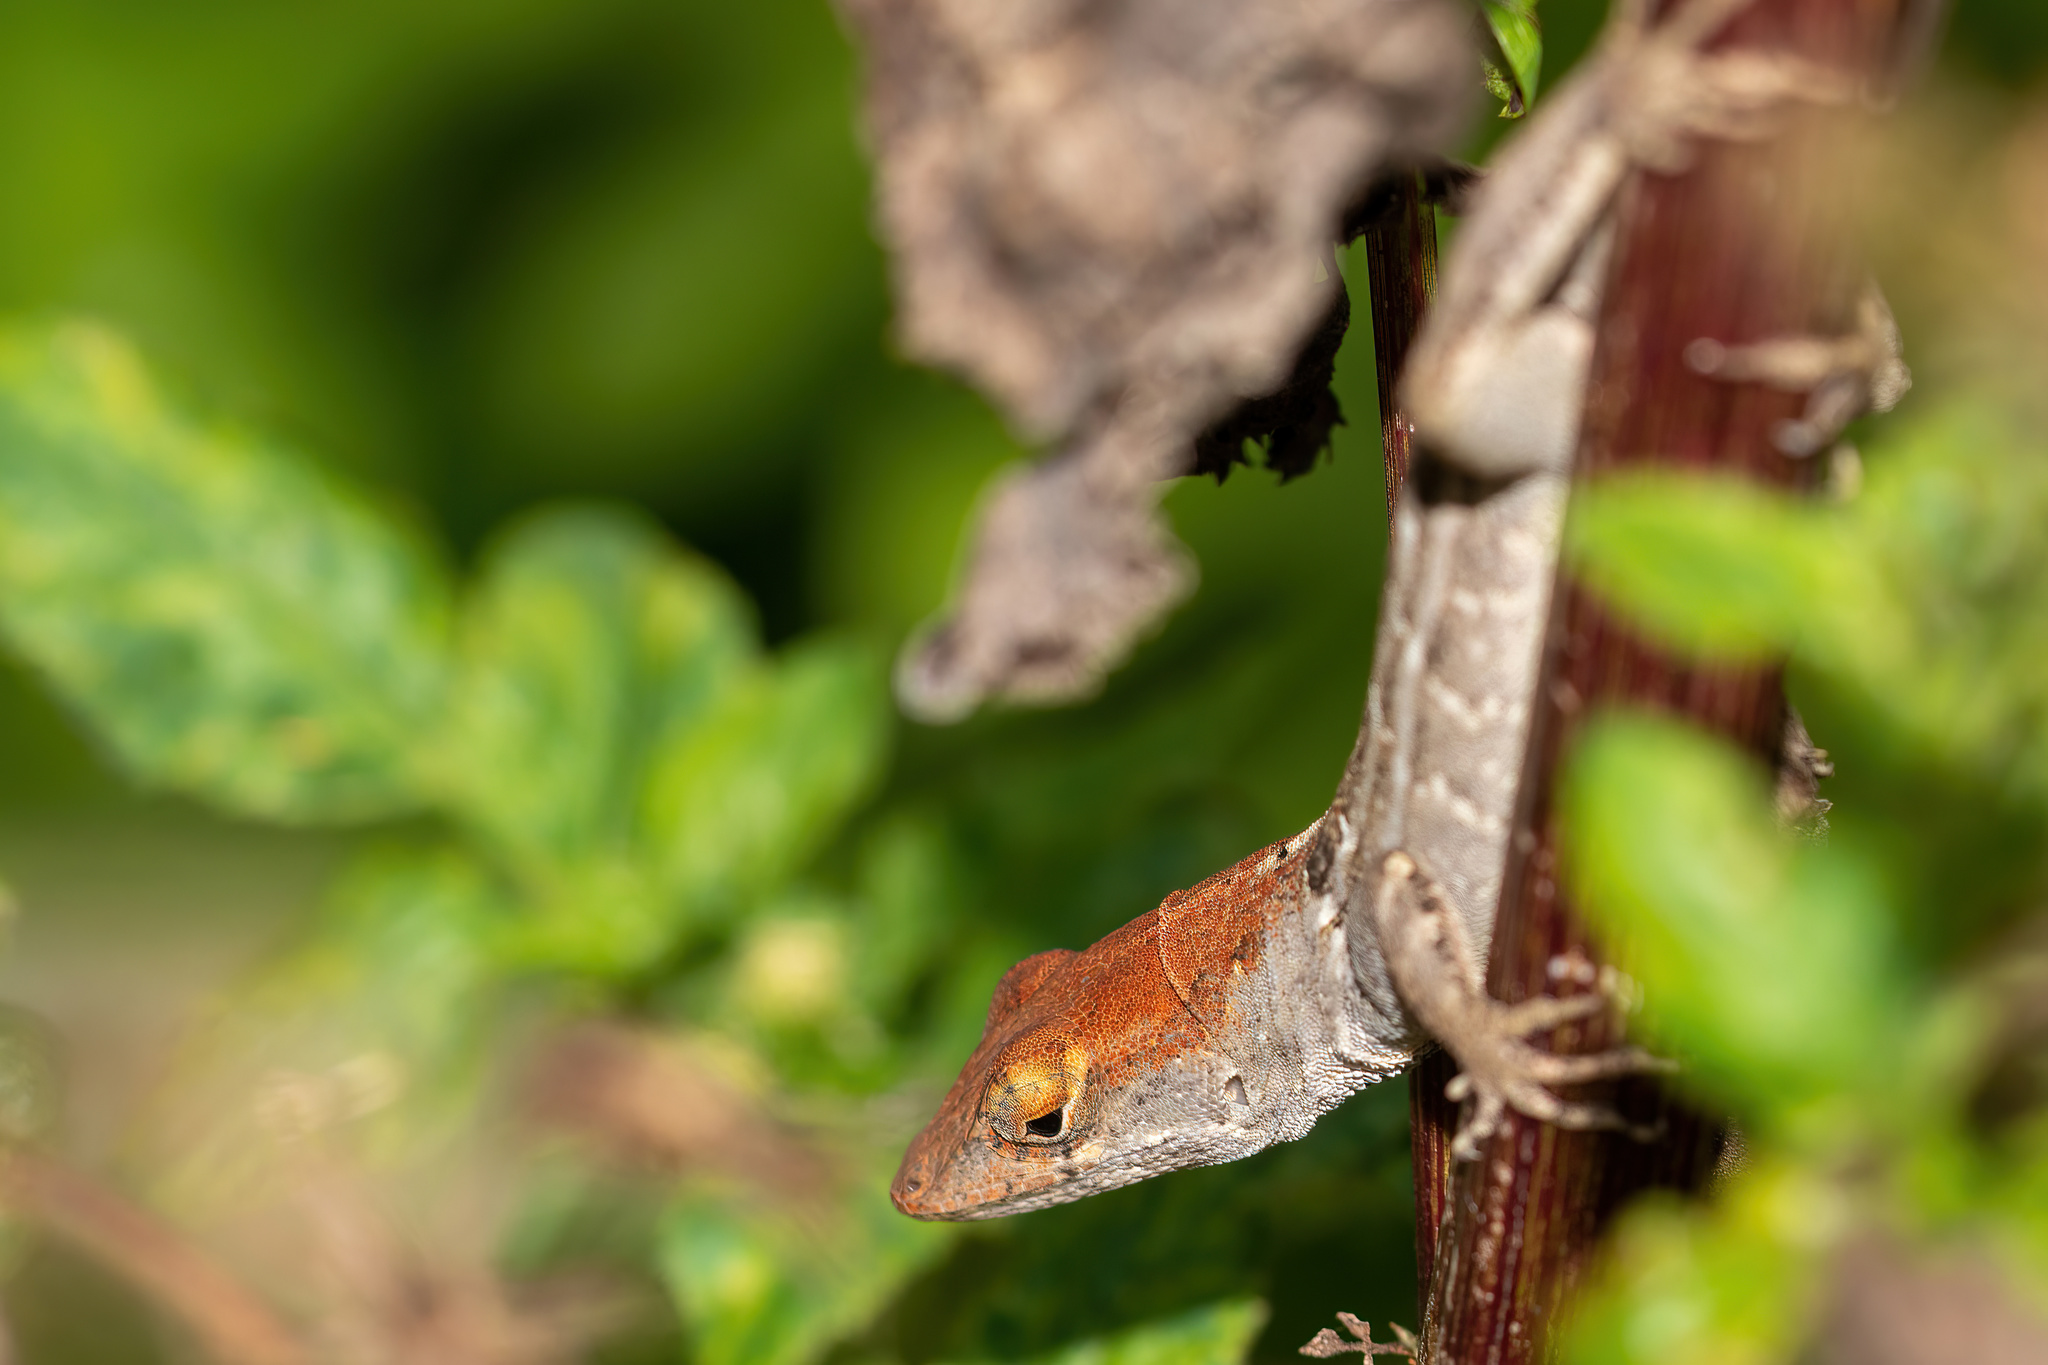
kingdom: Animalia
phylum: Chordata
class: Squamata
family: Dactyloidae
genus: Anolis
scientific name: Anolis sagrei
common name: Brown anole
